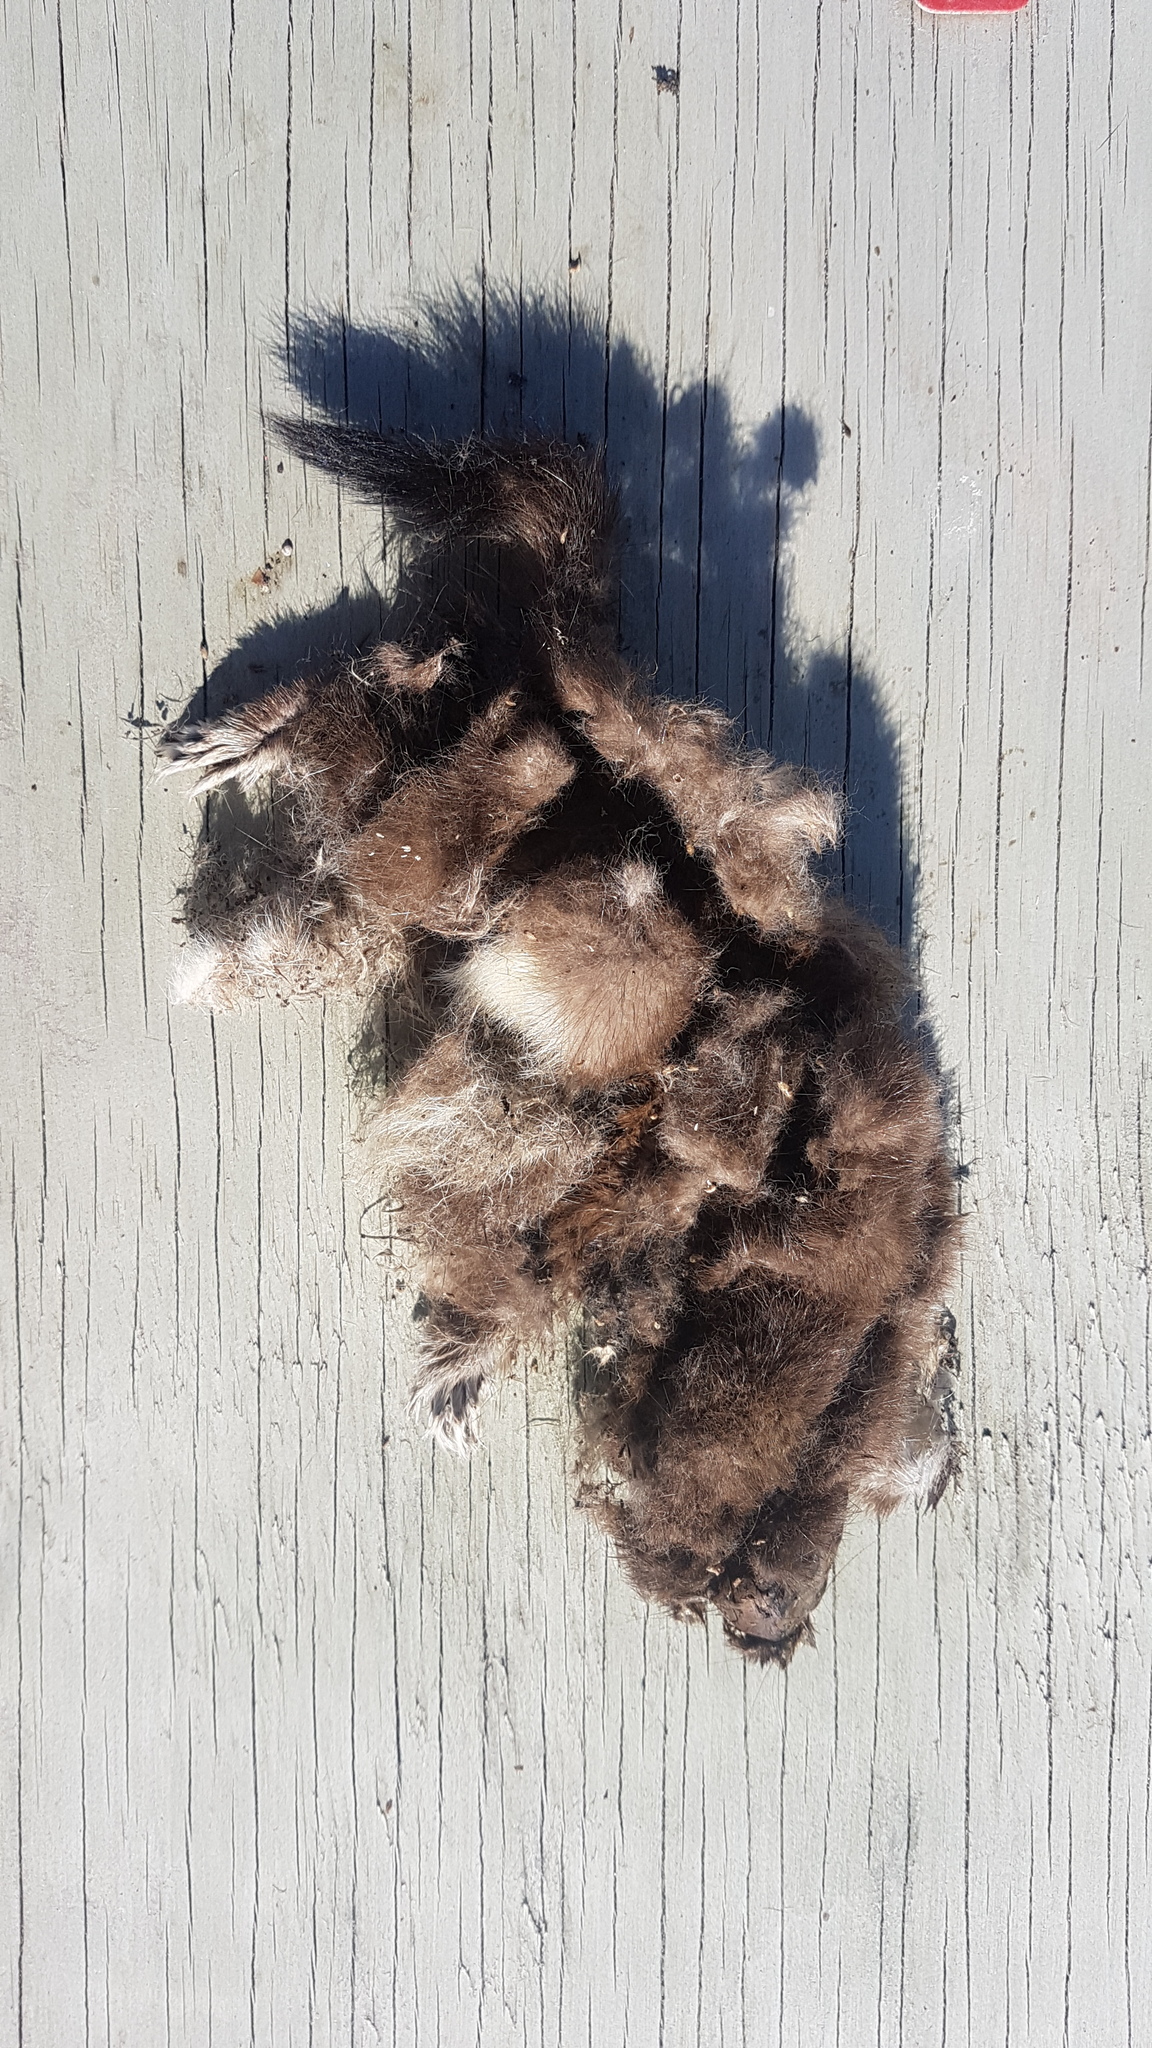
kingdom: Animalia
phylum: Chordata
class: Mammalia
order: Carnivora
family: Mustelidae
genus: Mustela
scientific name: Mustela erminea
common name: Stoat
